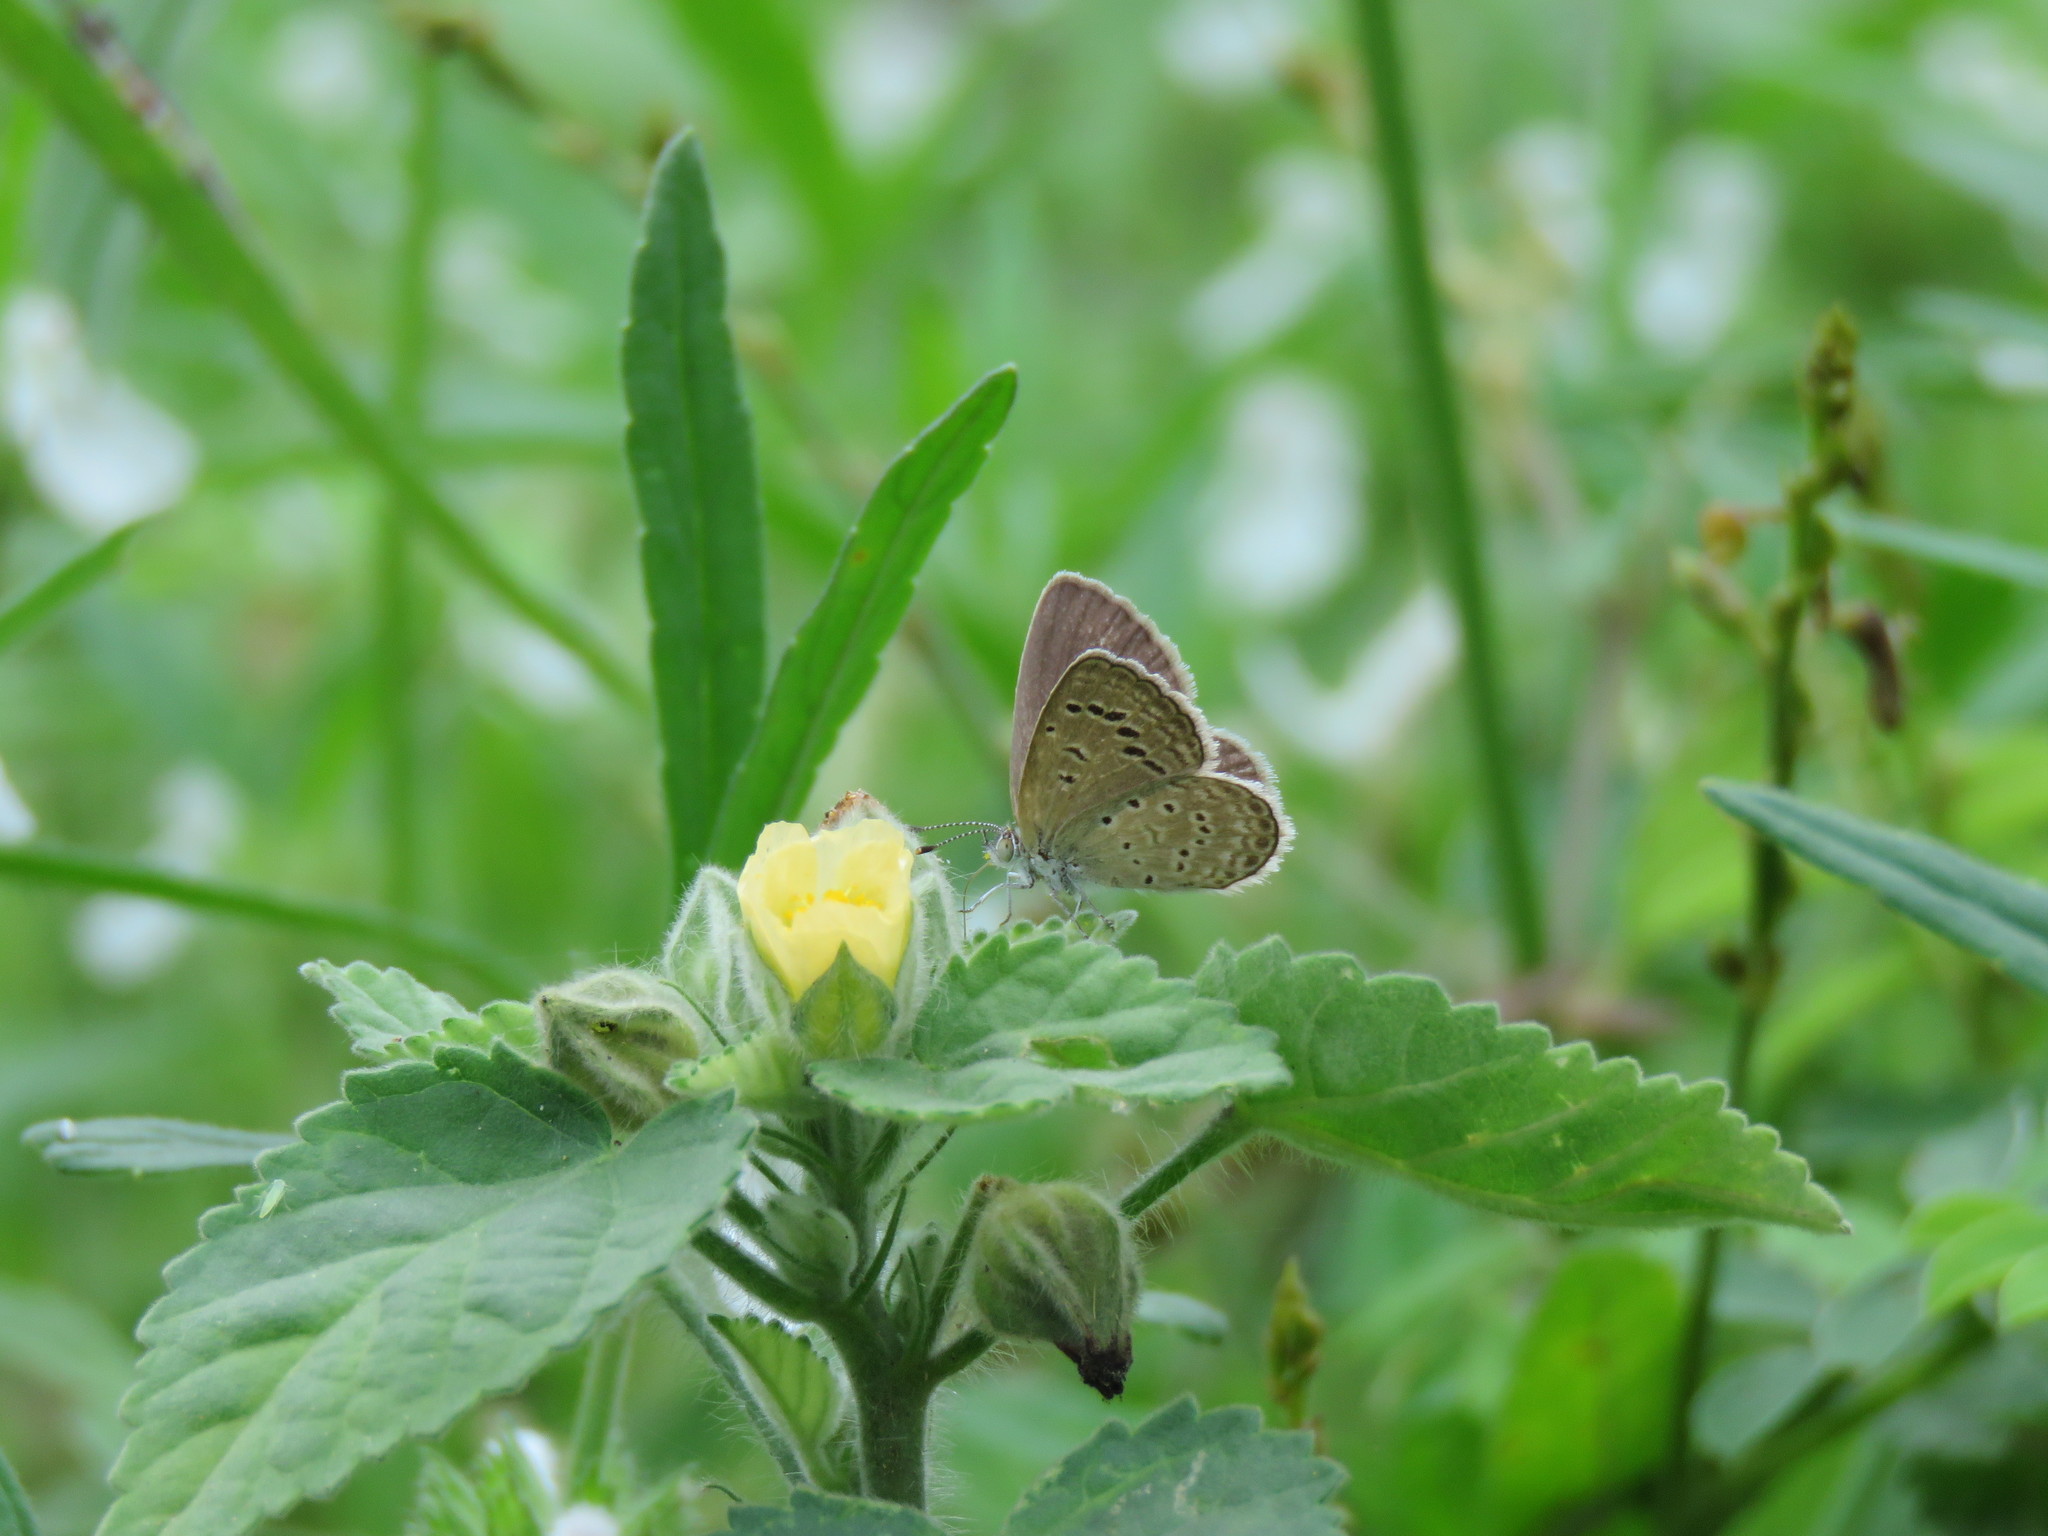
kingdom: Animalia
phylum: Arthropoda
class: Insecta
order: Lepidoptera
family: Lycaenidae
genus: Zizeeria
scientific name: Zizeeria karsandra
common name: Dark grass blue
